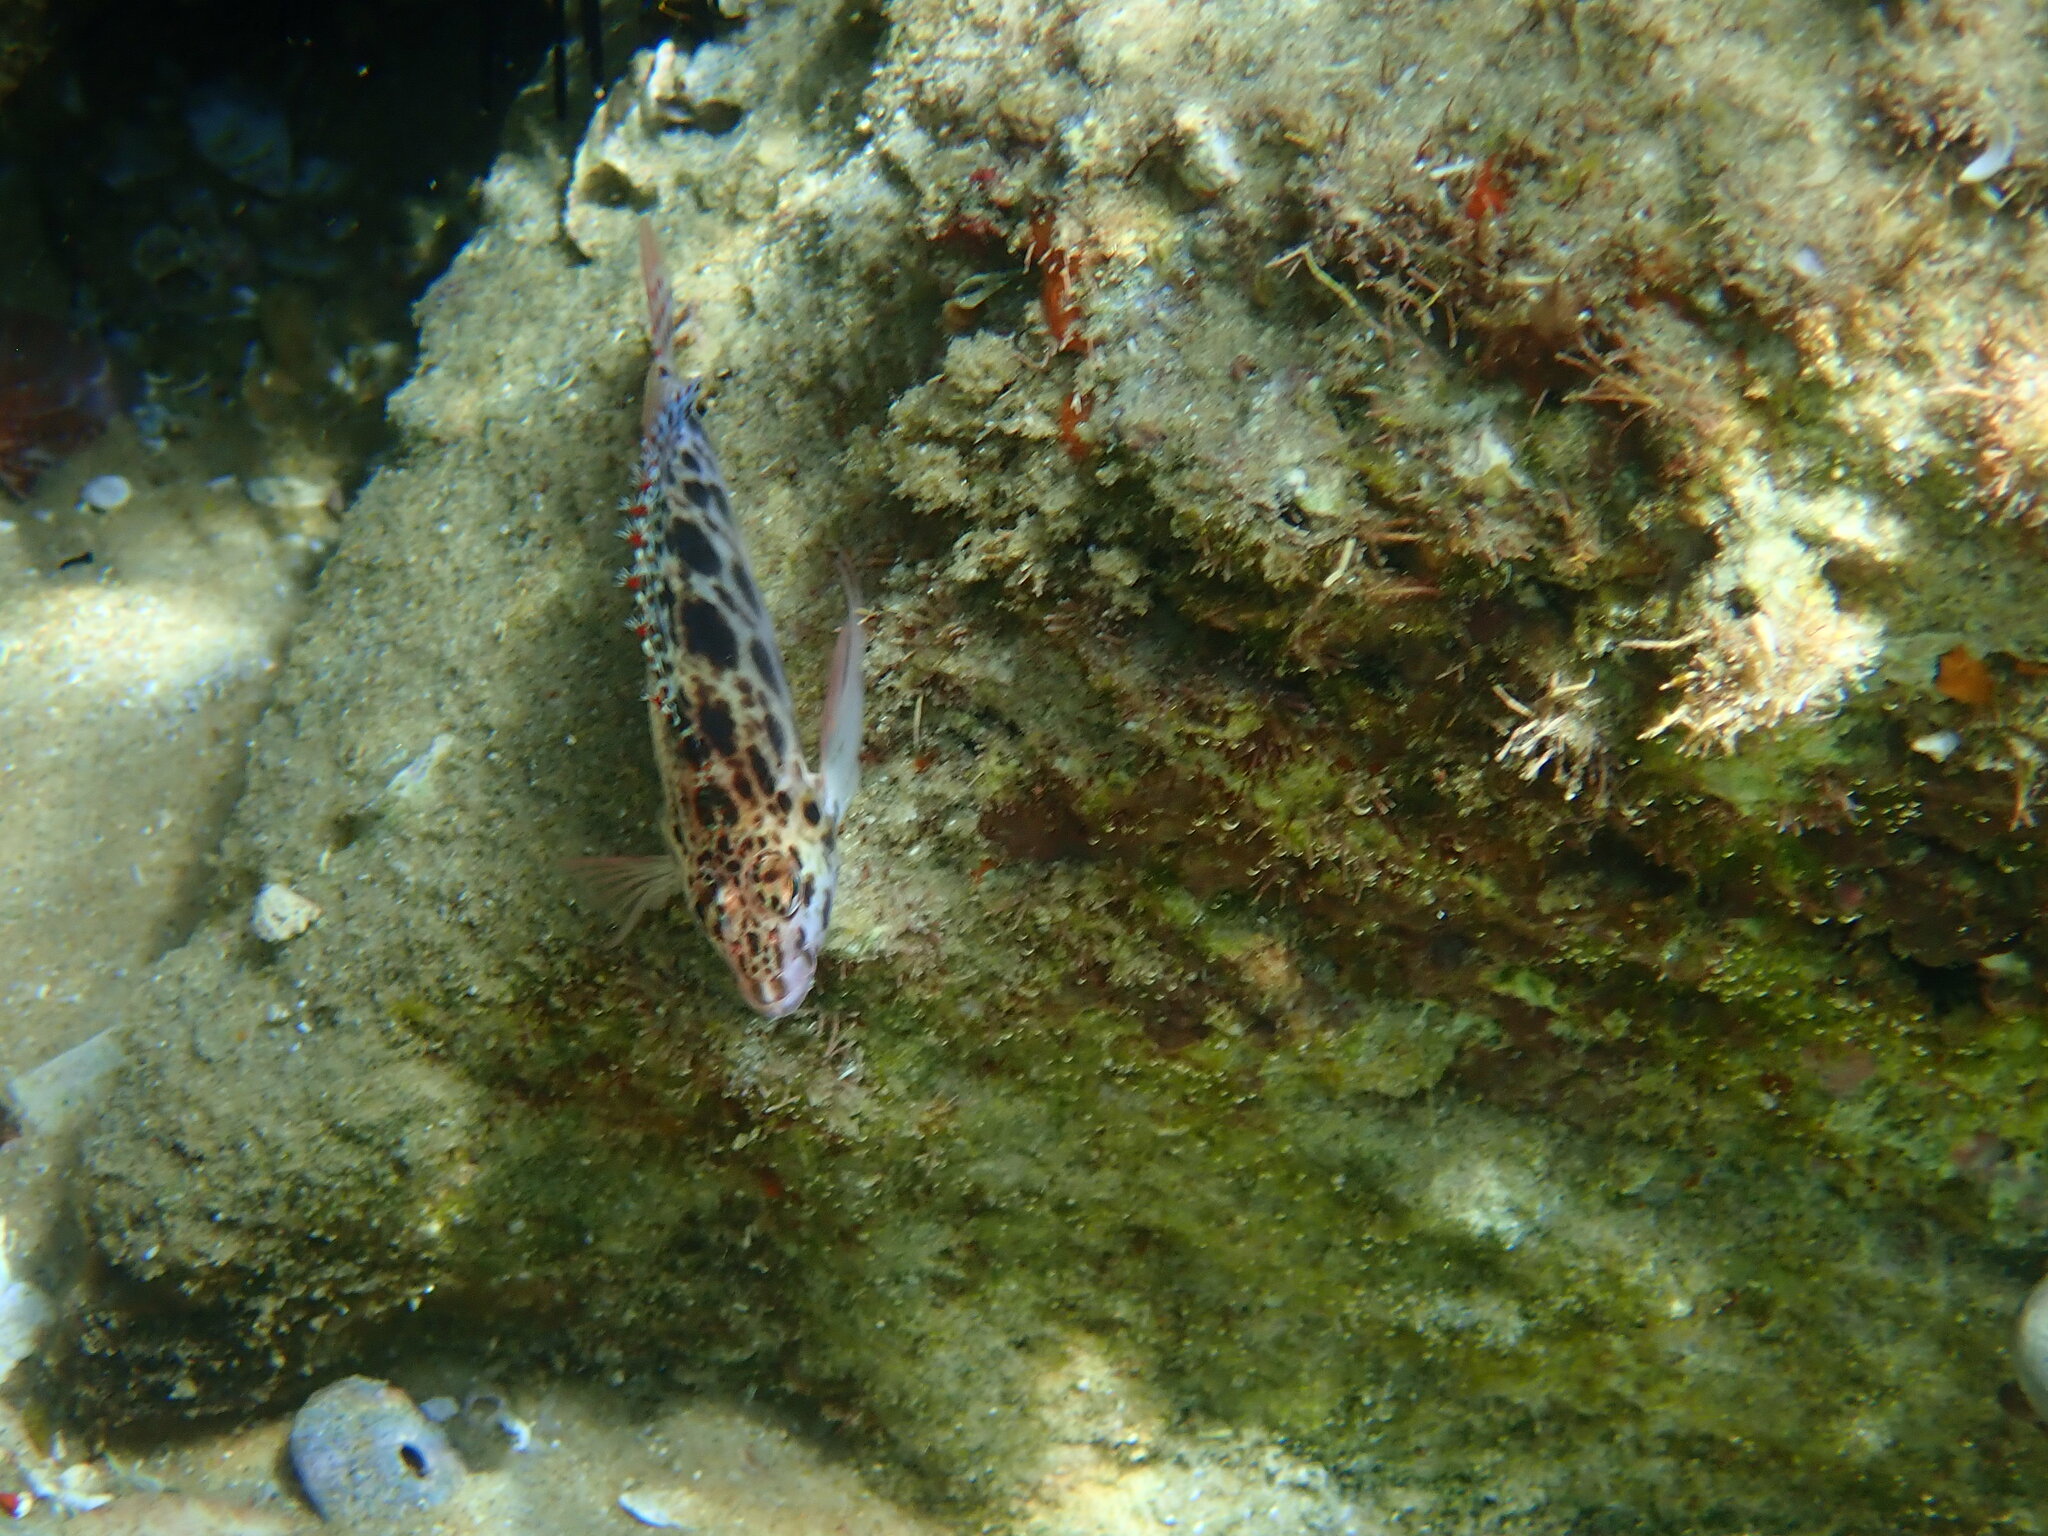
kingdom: Animalia
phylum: Chordata
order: Perciformes
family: Cirrhitidae
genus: Cirrhitichthys
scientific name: Cirrhitichthys oxycephalus
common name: Spotted hawkfish
